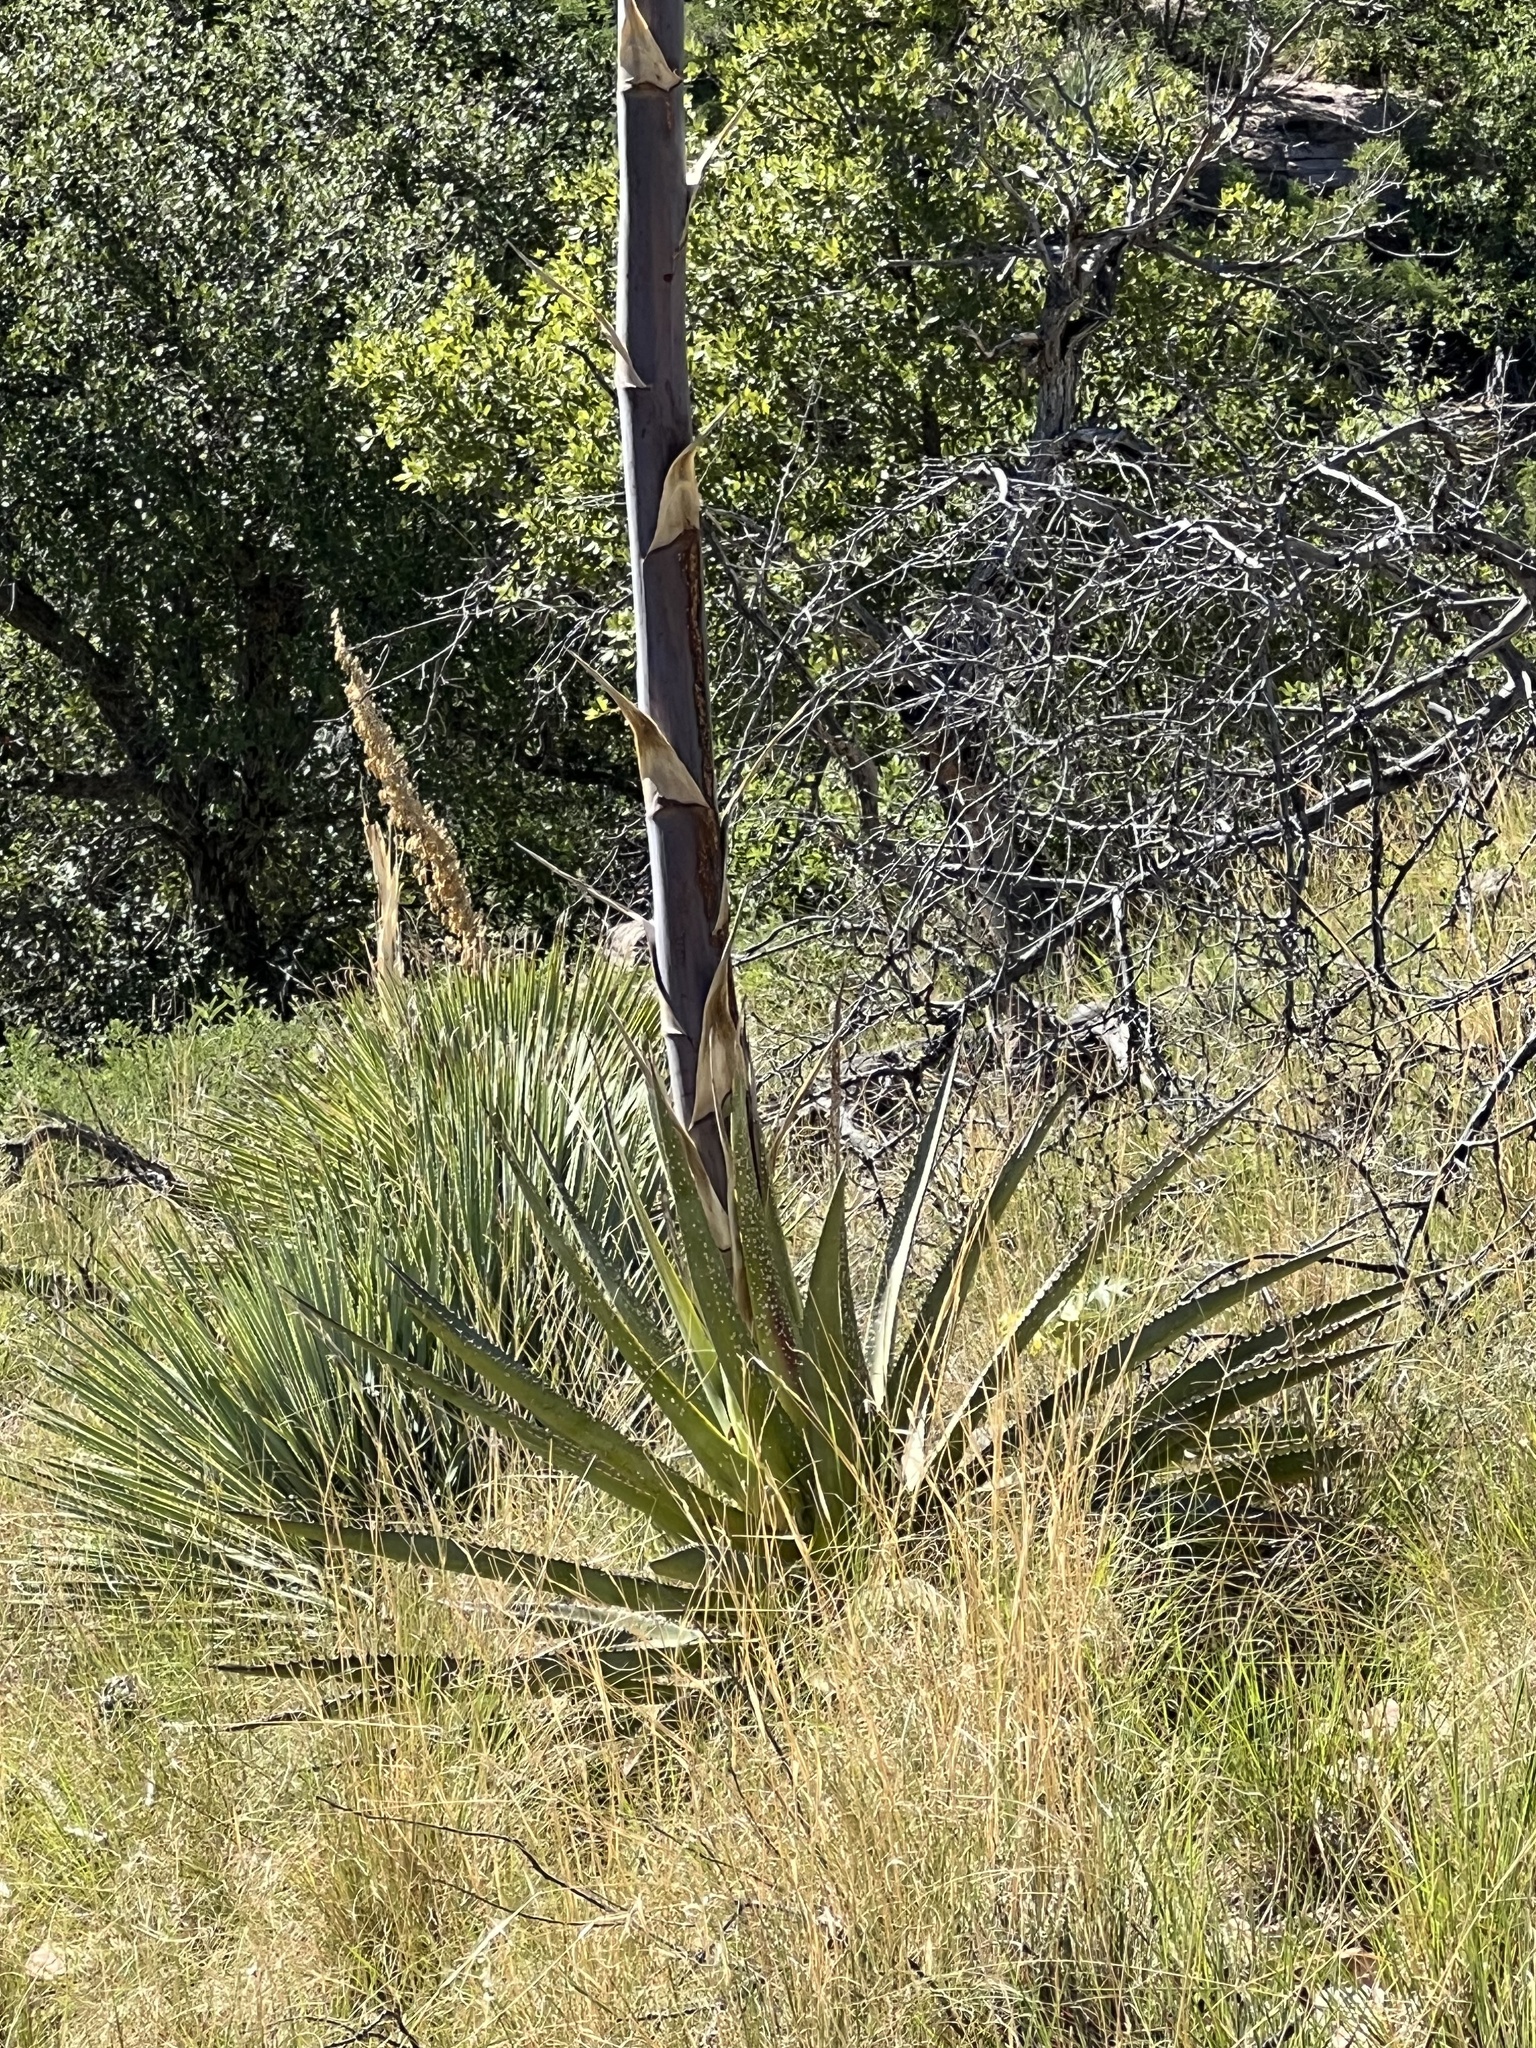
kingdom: Plantae
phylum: Tracheophyta
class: Liliopsida
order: Asparagales
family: Asparagaceae
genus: Agave
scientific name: Agave palmeri
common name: Palmer agave
